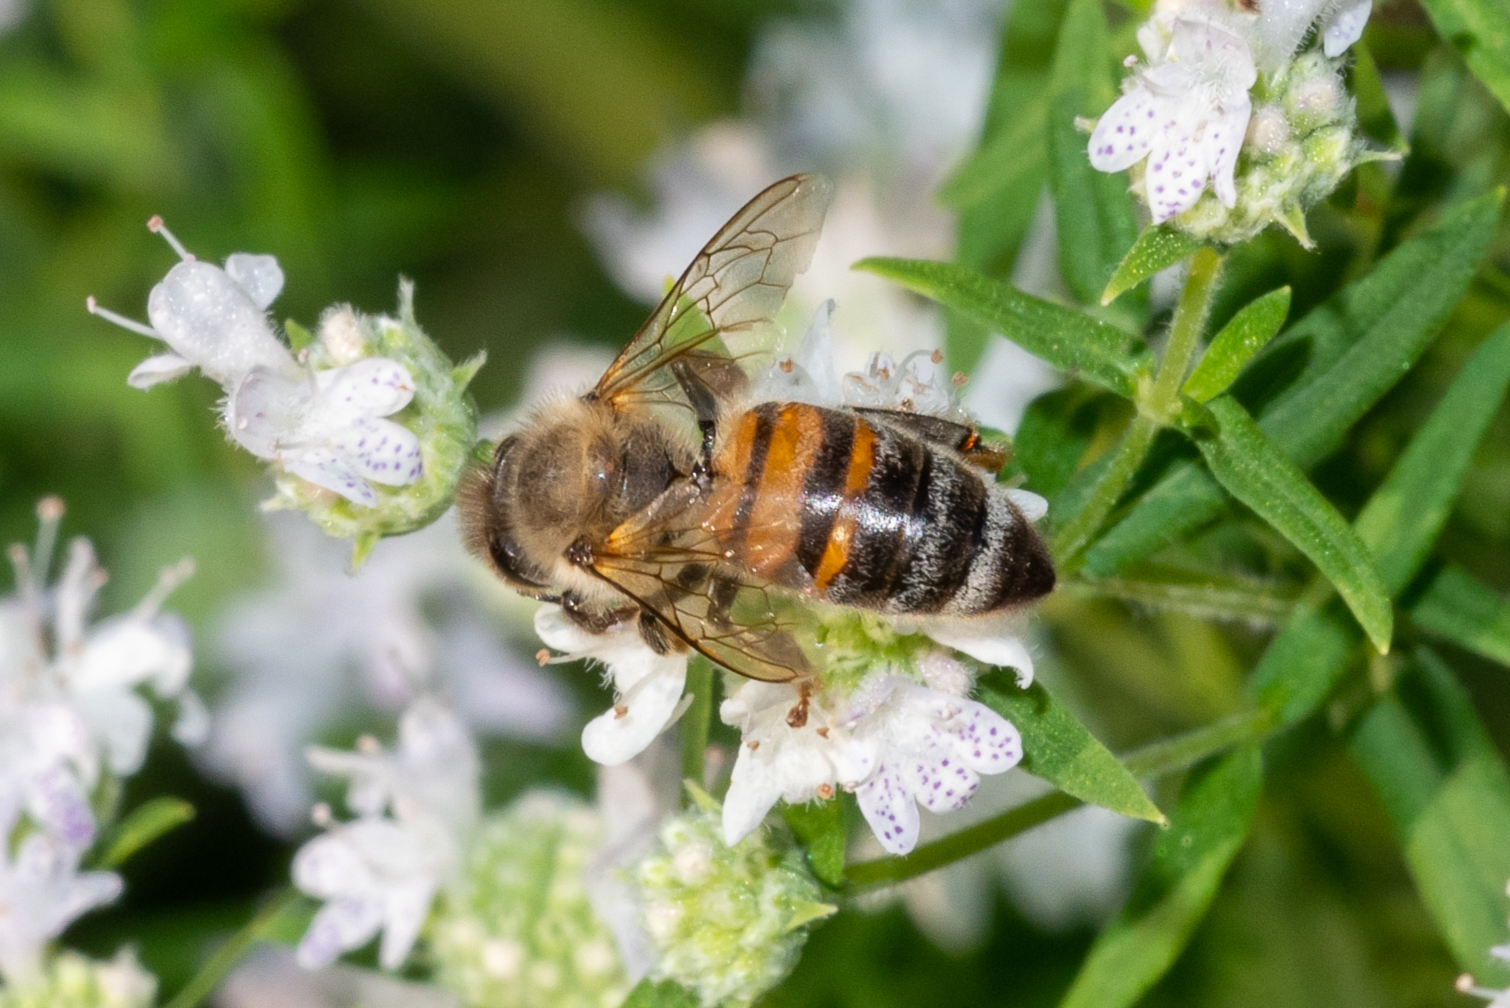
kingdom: Animalia
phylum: Arthropoda
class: Insecta
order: Hymenoptera
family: Apidae
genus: Apis
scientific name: Apis mellifera
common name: Honey bee
